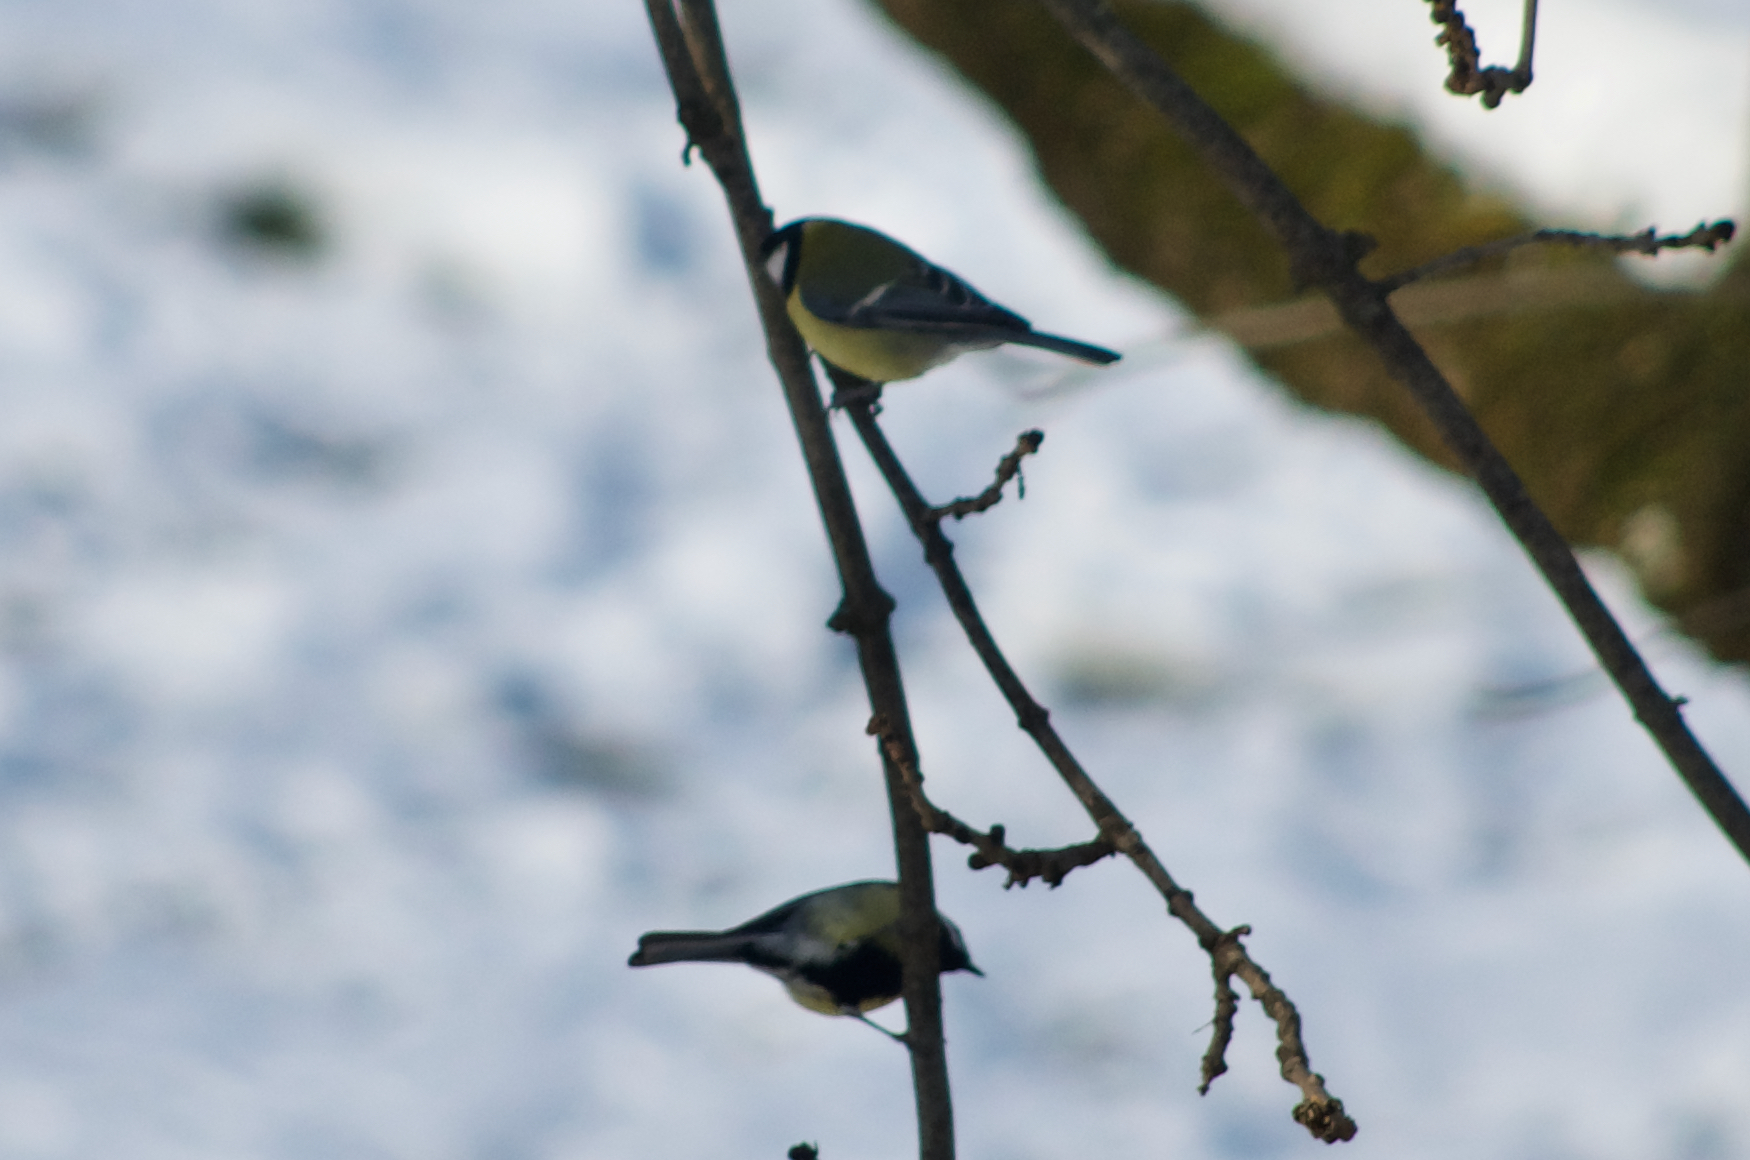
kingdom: Animalia
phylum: Chordata
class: Aves
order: Passeriformes
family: Paridae
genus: Parus
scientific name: Parus major
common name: Great tit
